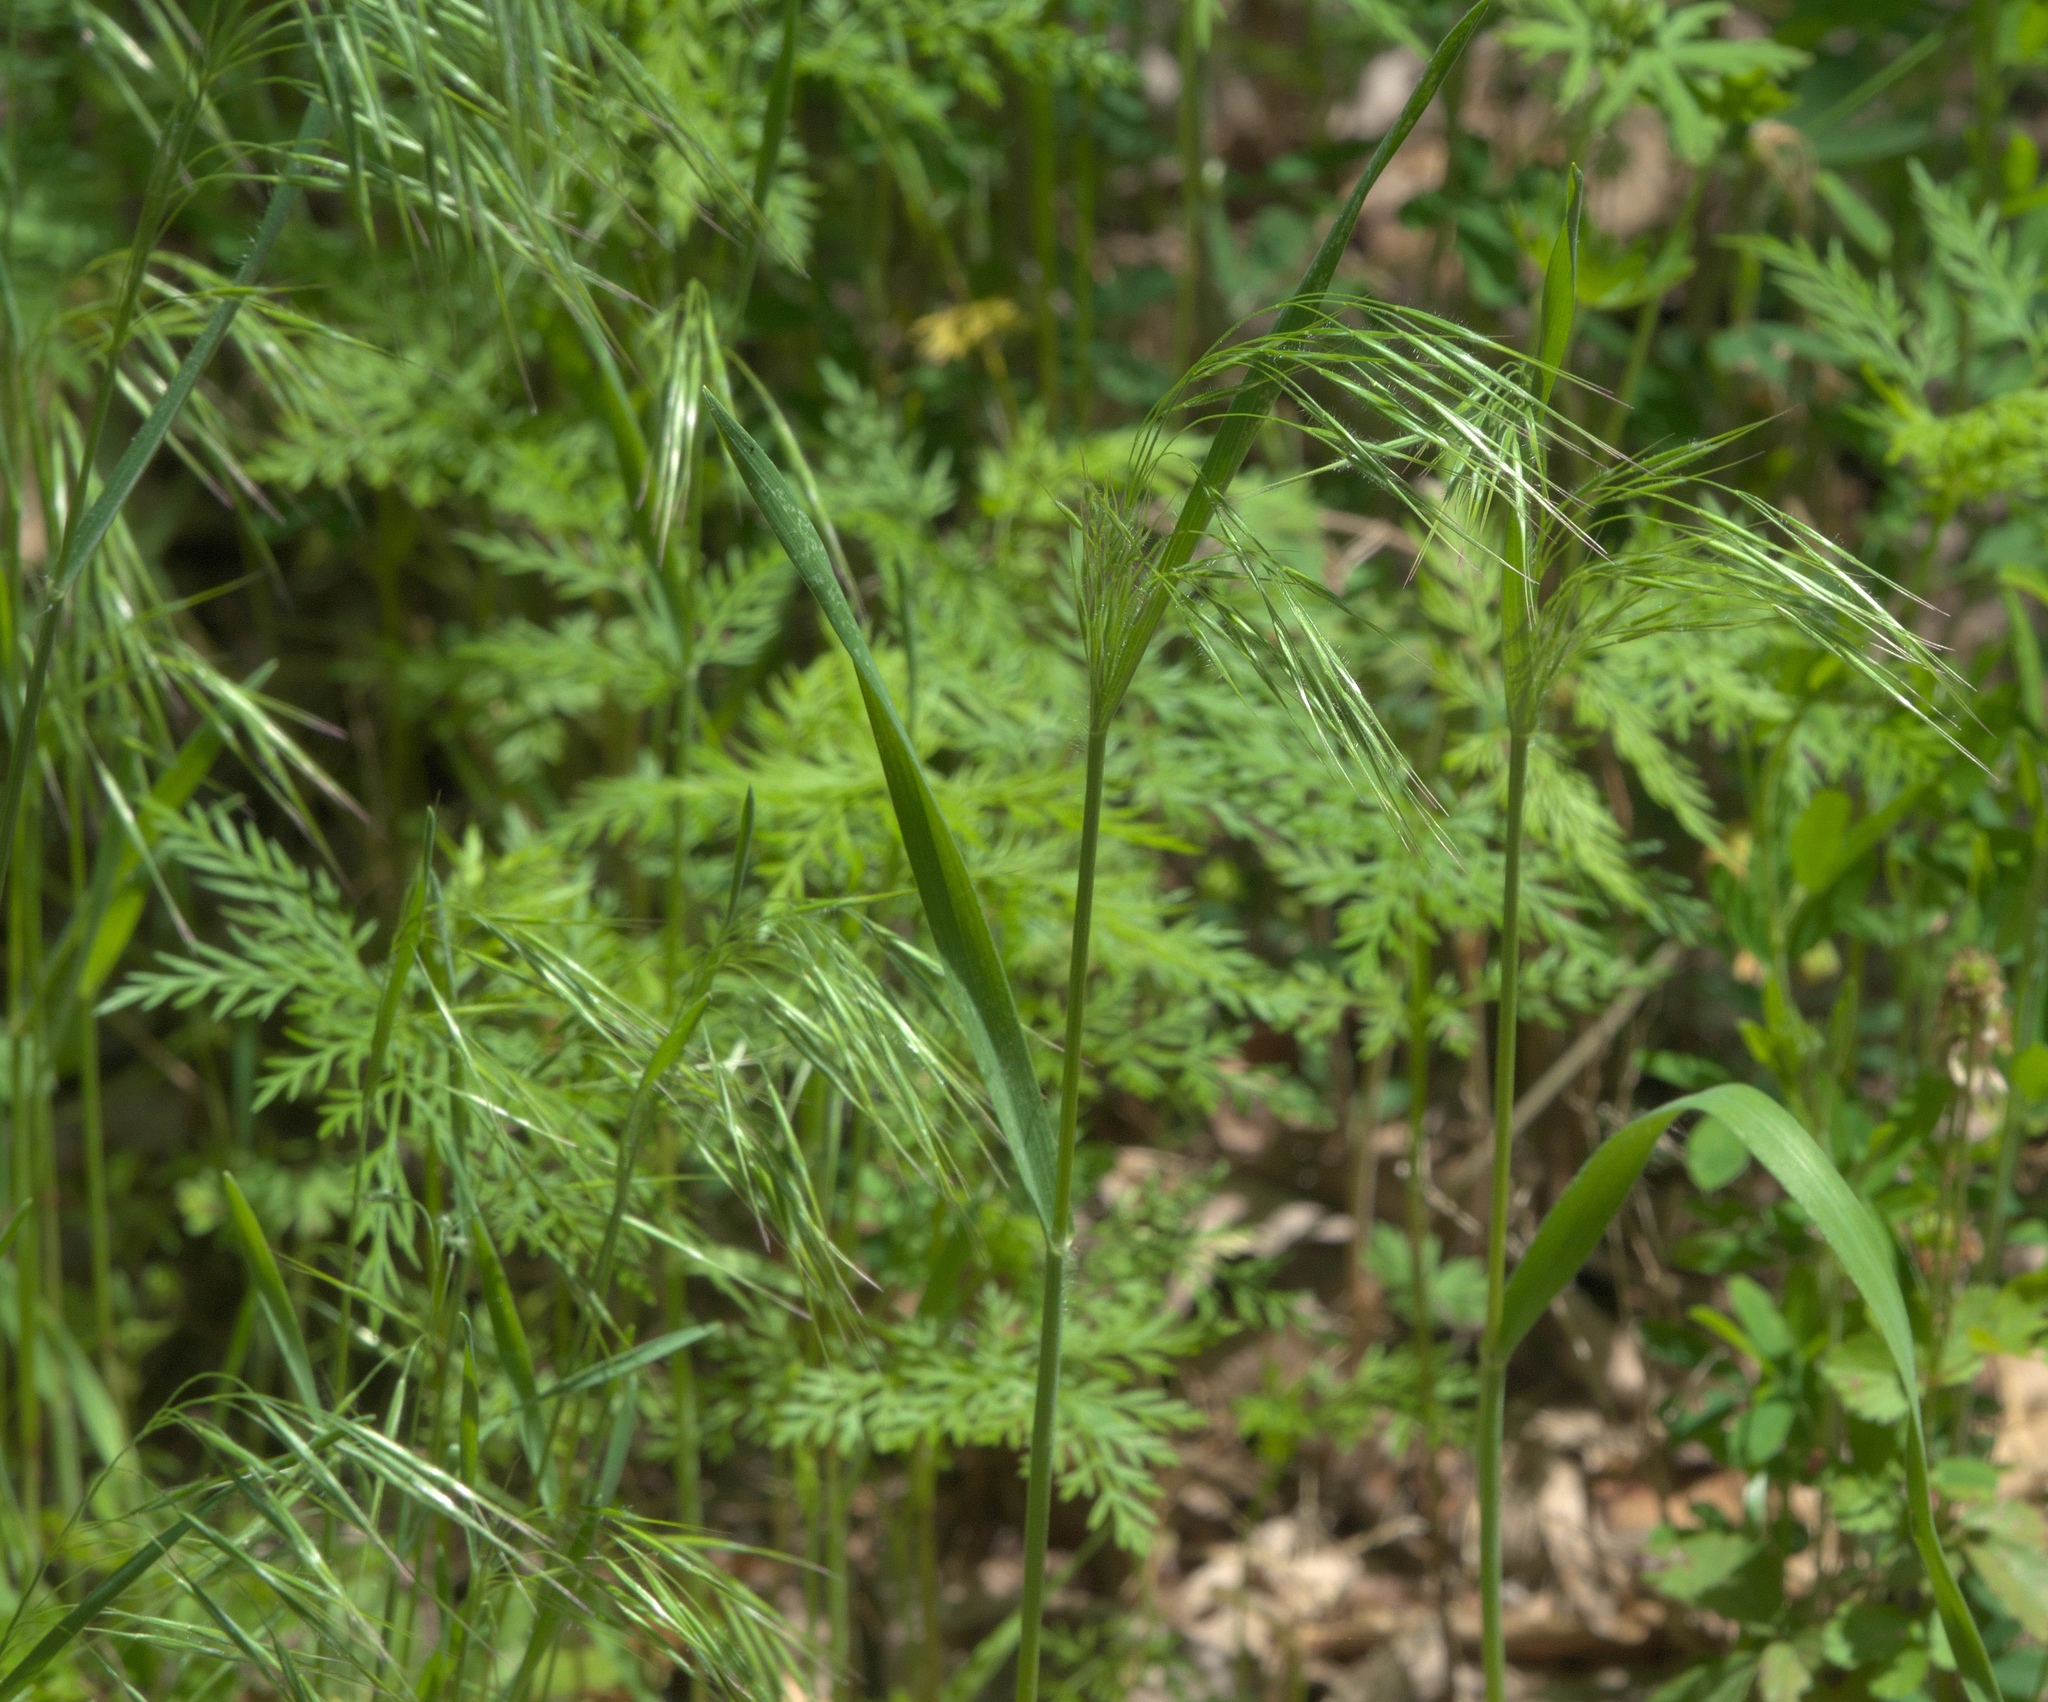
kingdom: Plantae
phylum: Tracheophyta
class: Liliopsida
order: Poales
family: Poaceae
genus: Bromus
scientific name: Bromus tectorum
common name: Cheatgrass
